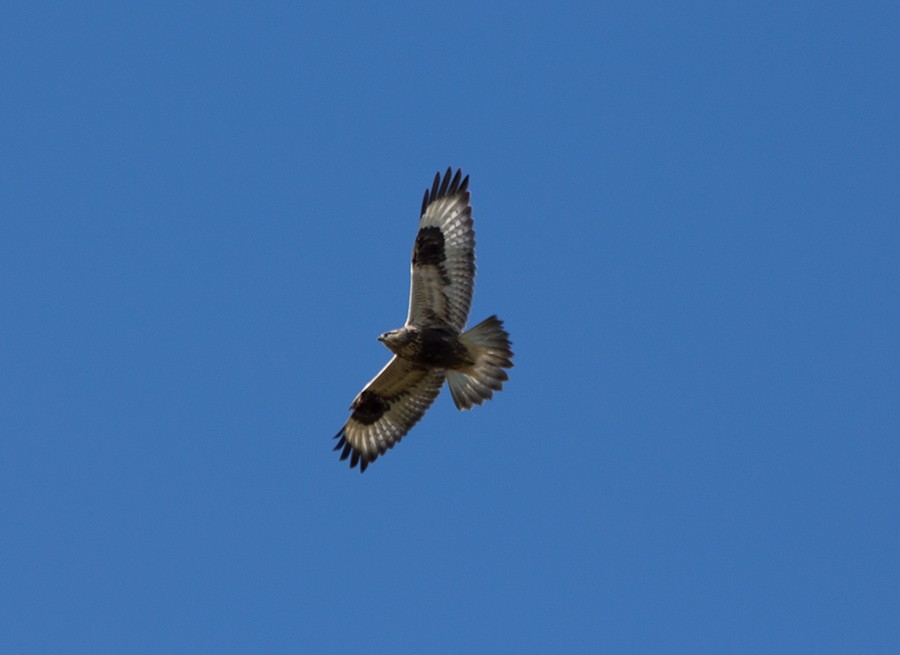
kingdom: Animalia
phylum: Chordata
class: Aves
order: Accipitriformes
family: Accipitridae
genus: Buteo
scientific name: Buteo lagopus
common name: Rough-legged buzzard
